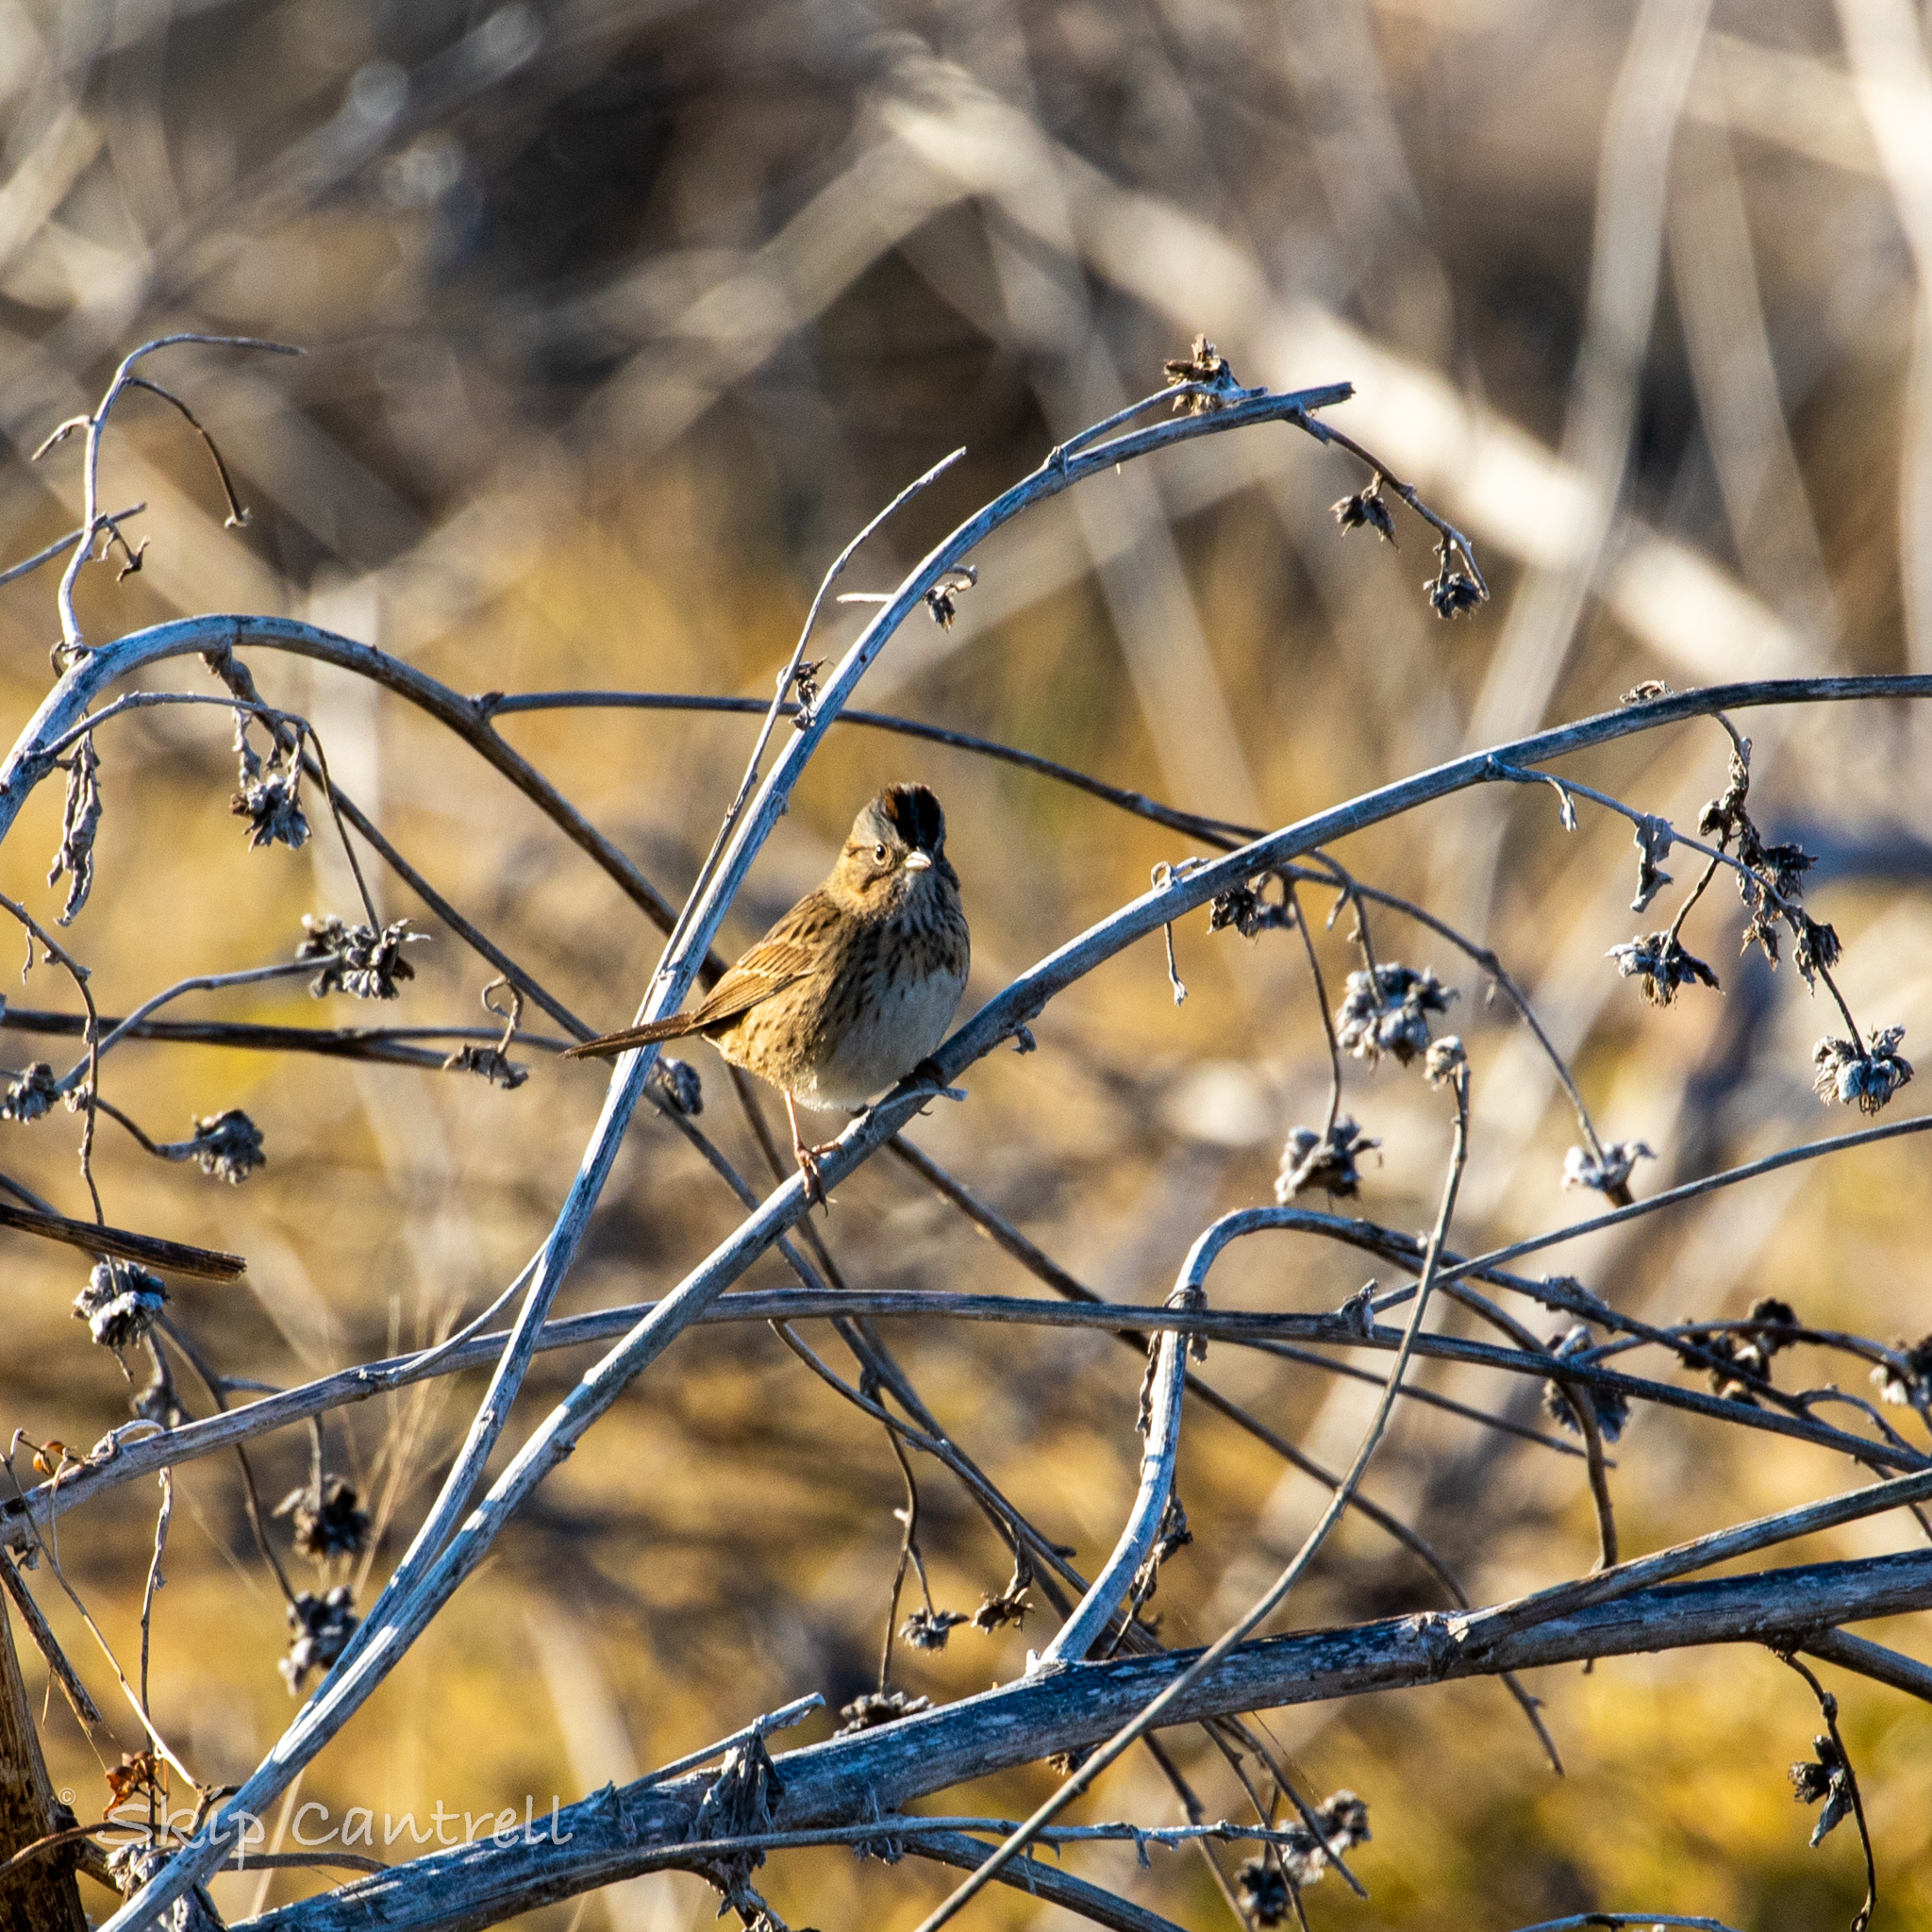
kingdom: Animalia
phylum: Chordata
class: Aves
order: Passeriformes
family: Passerellidae
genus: Melospiza
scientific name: Melospiza lincolnii
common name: Lincoln's sparrow
